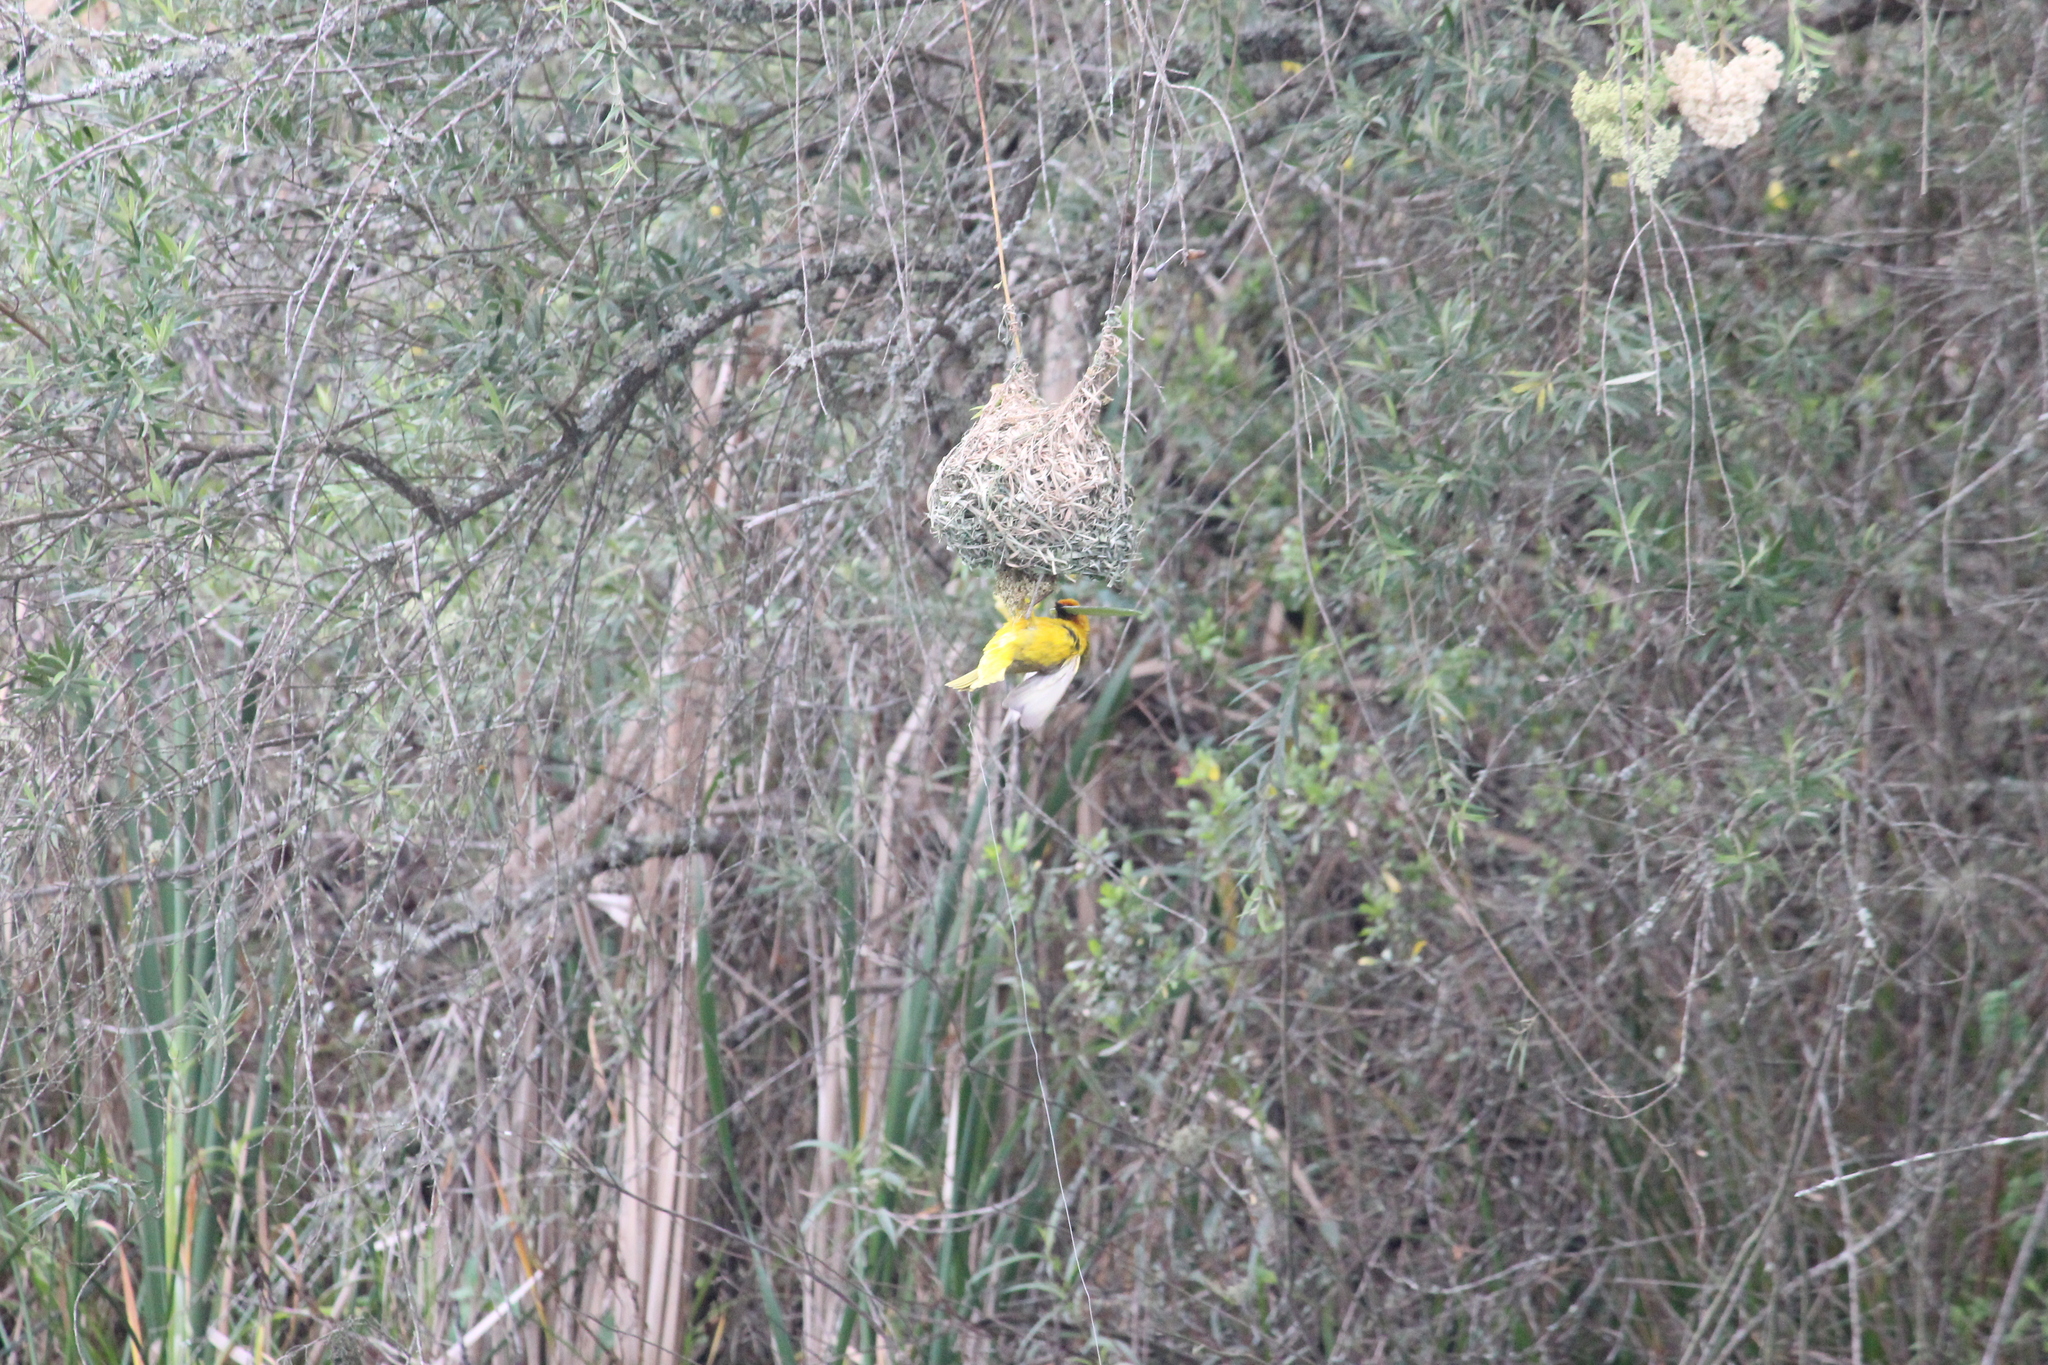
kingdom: Animalia
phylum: Chordata
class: Aves
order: Passeriformes
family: Ploceidae
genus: Ploceus
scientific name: Ploceus capensis
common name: Cape weaver
